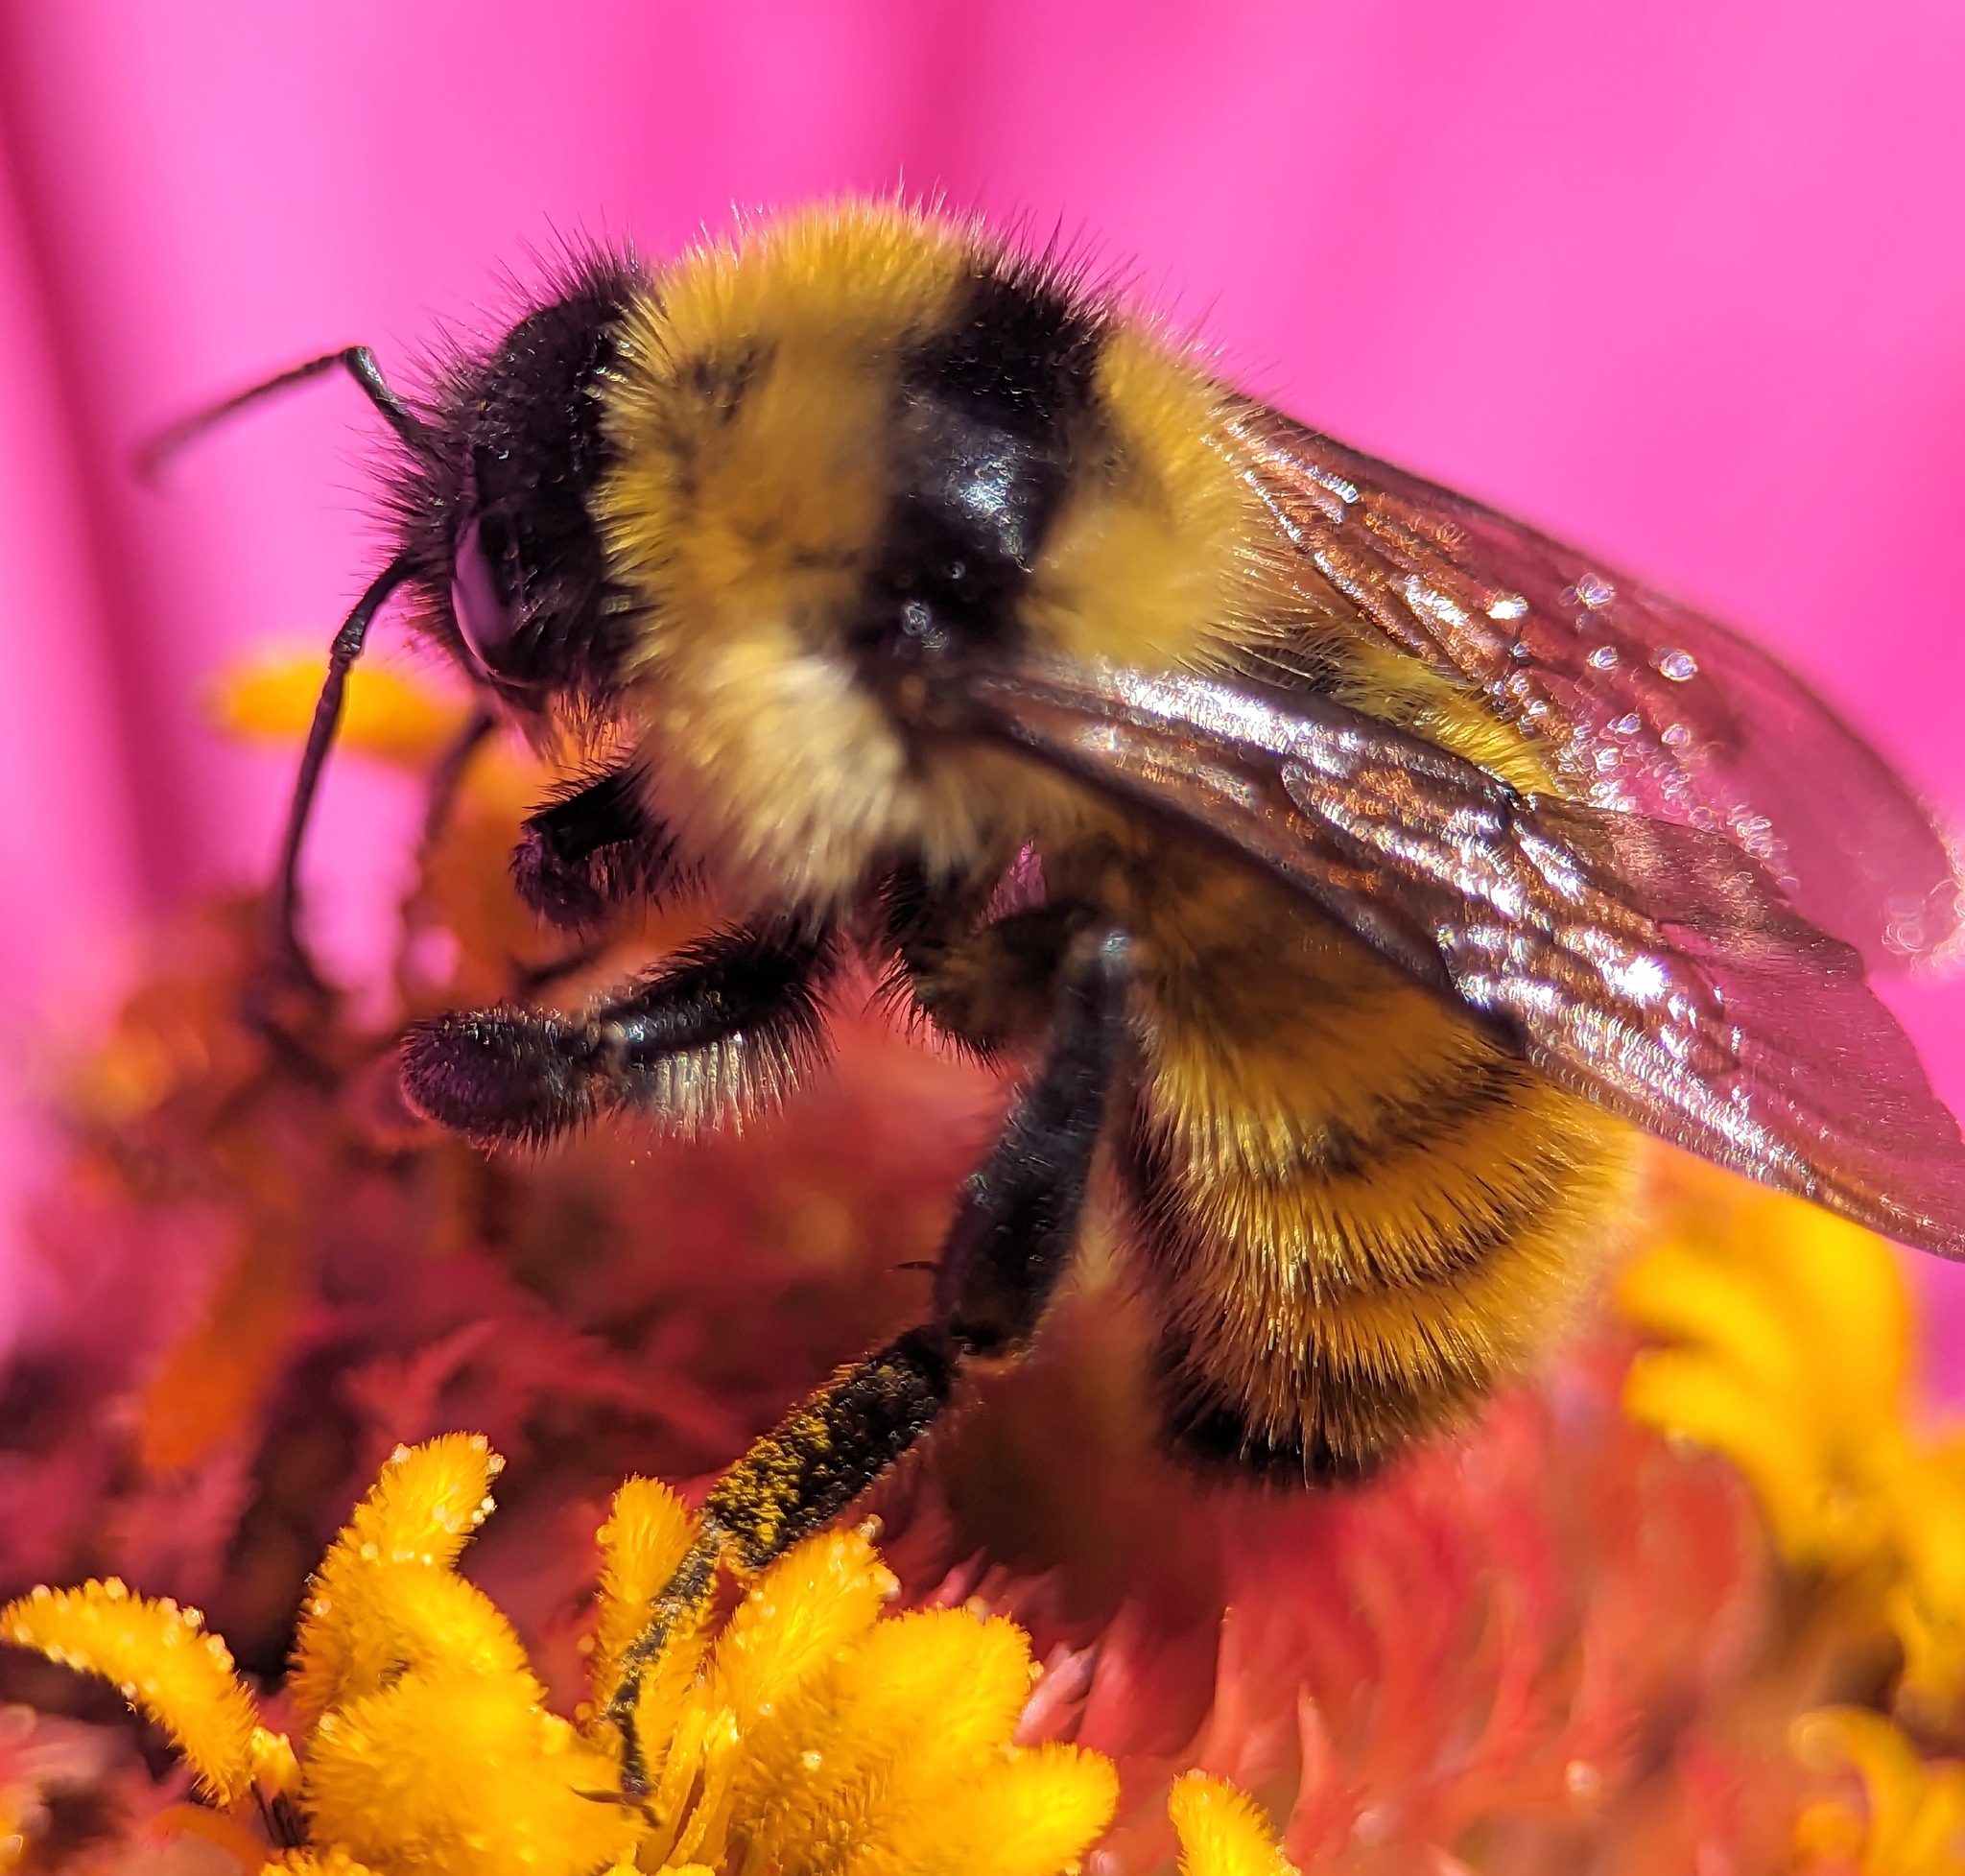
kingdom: Animalia
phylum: Arthropoda
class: Insecta
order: Hymenoptera
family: Apidae
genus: Bombus
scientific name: Bombus fervidus
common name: Yellow bumble bee
